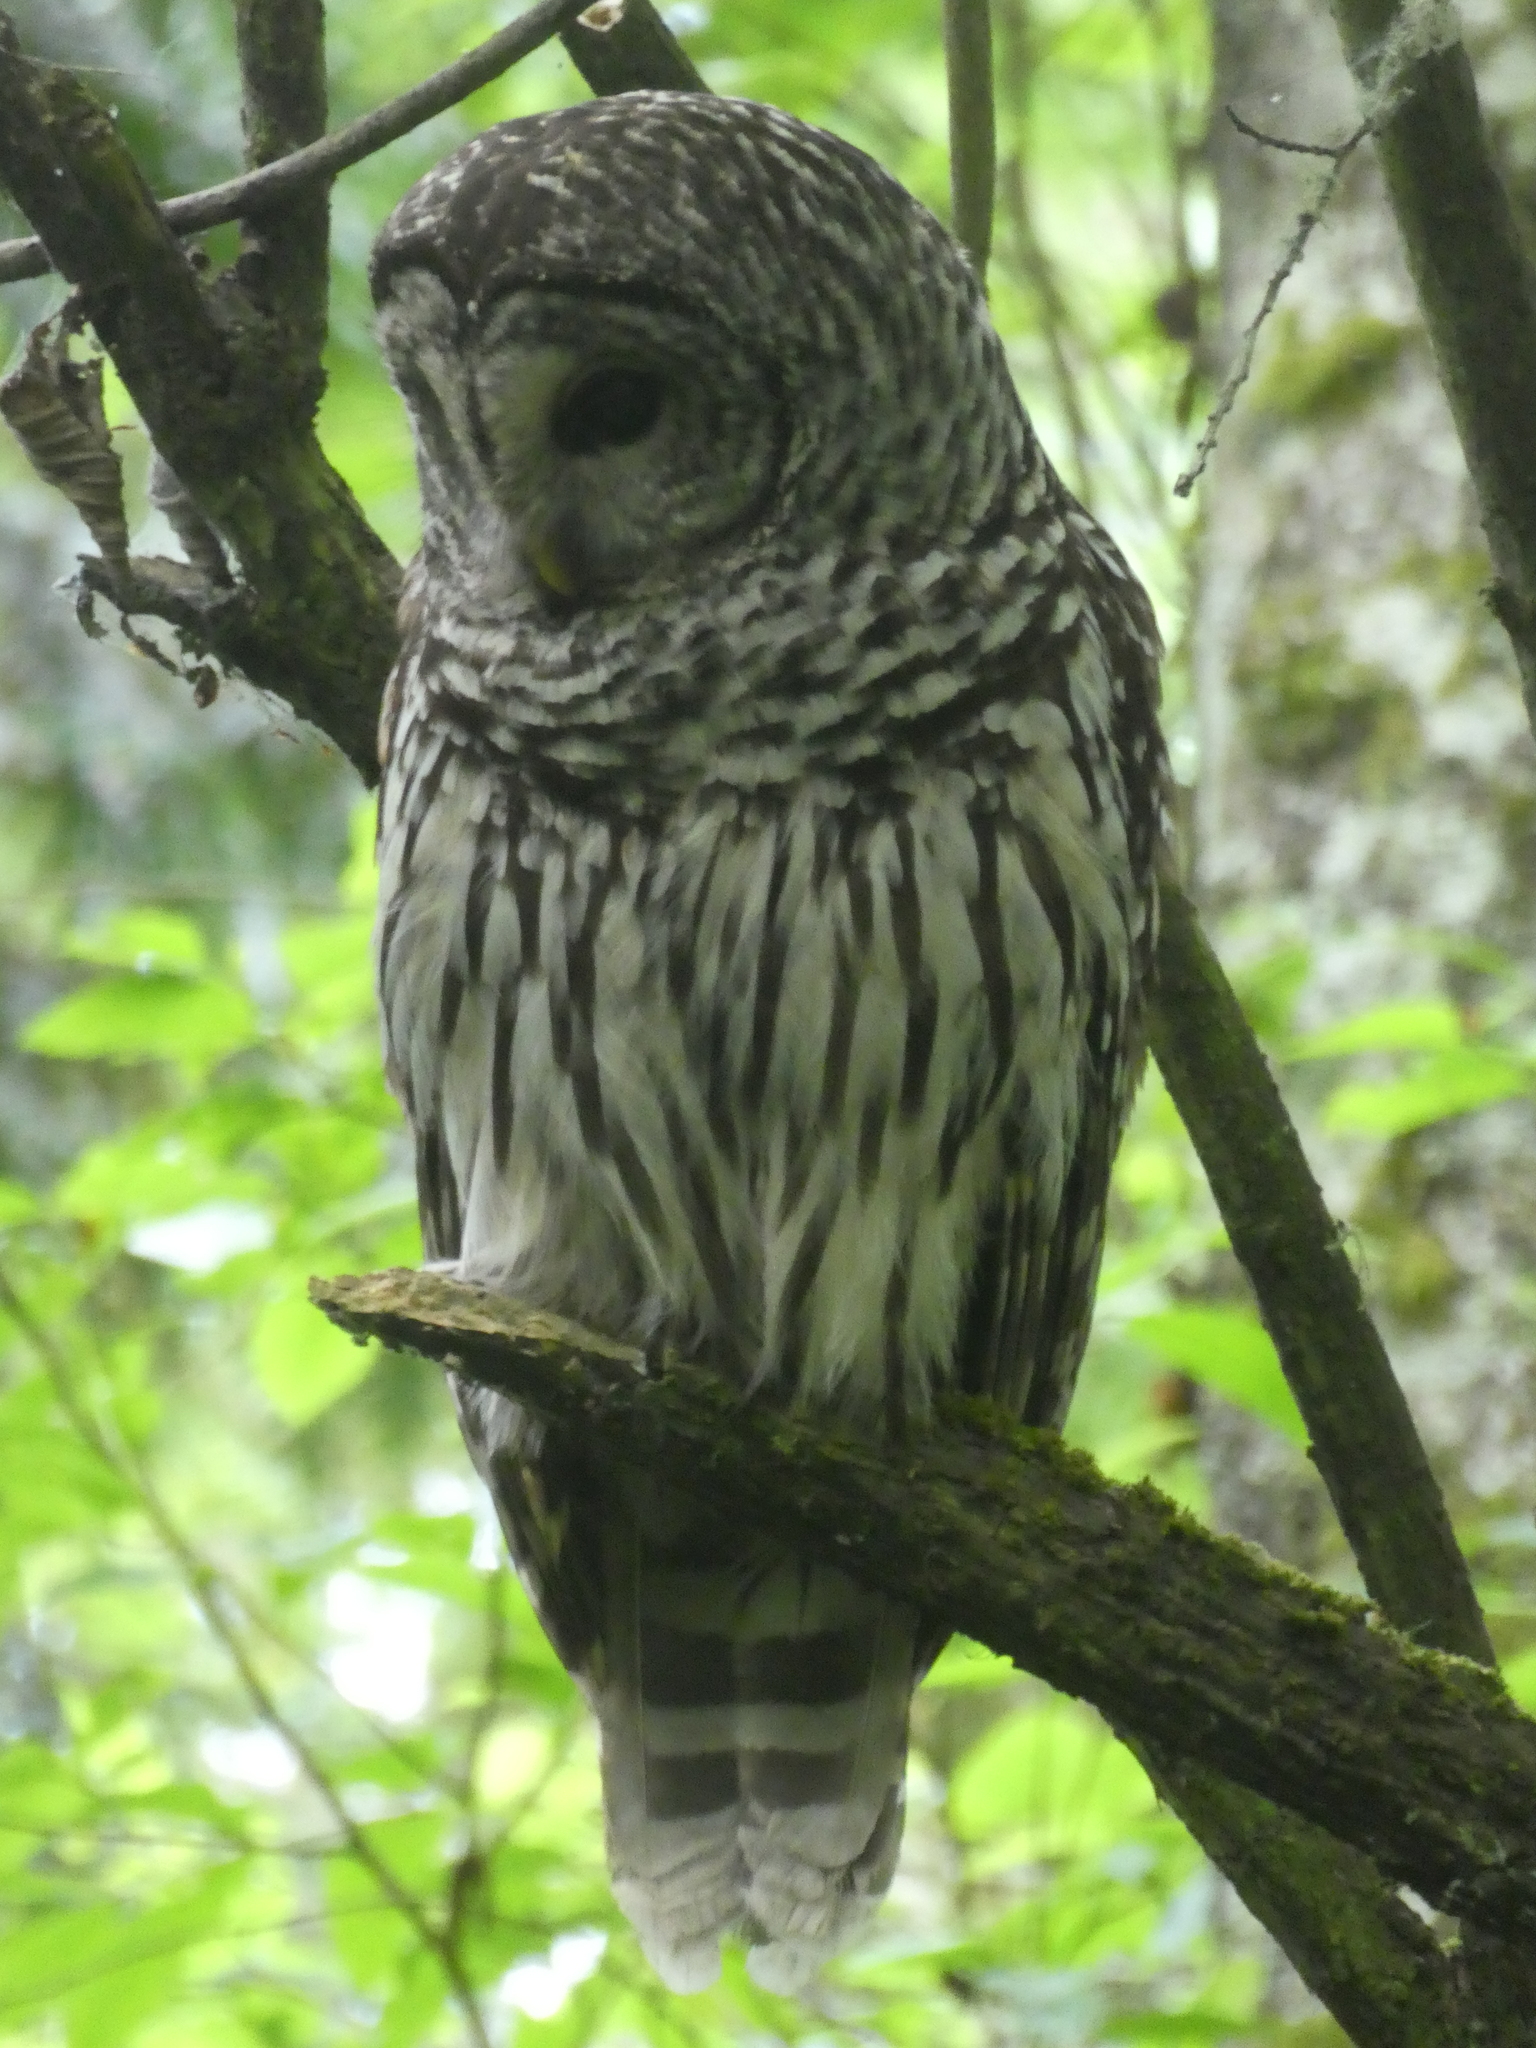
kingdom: Animalia
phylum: Chordata
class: Aves
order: Strigiformes
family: Strigidae
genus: Strix
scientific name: Strix varia
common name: Barred owl
